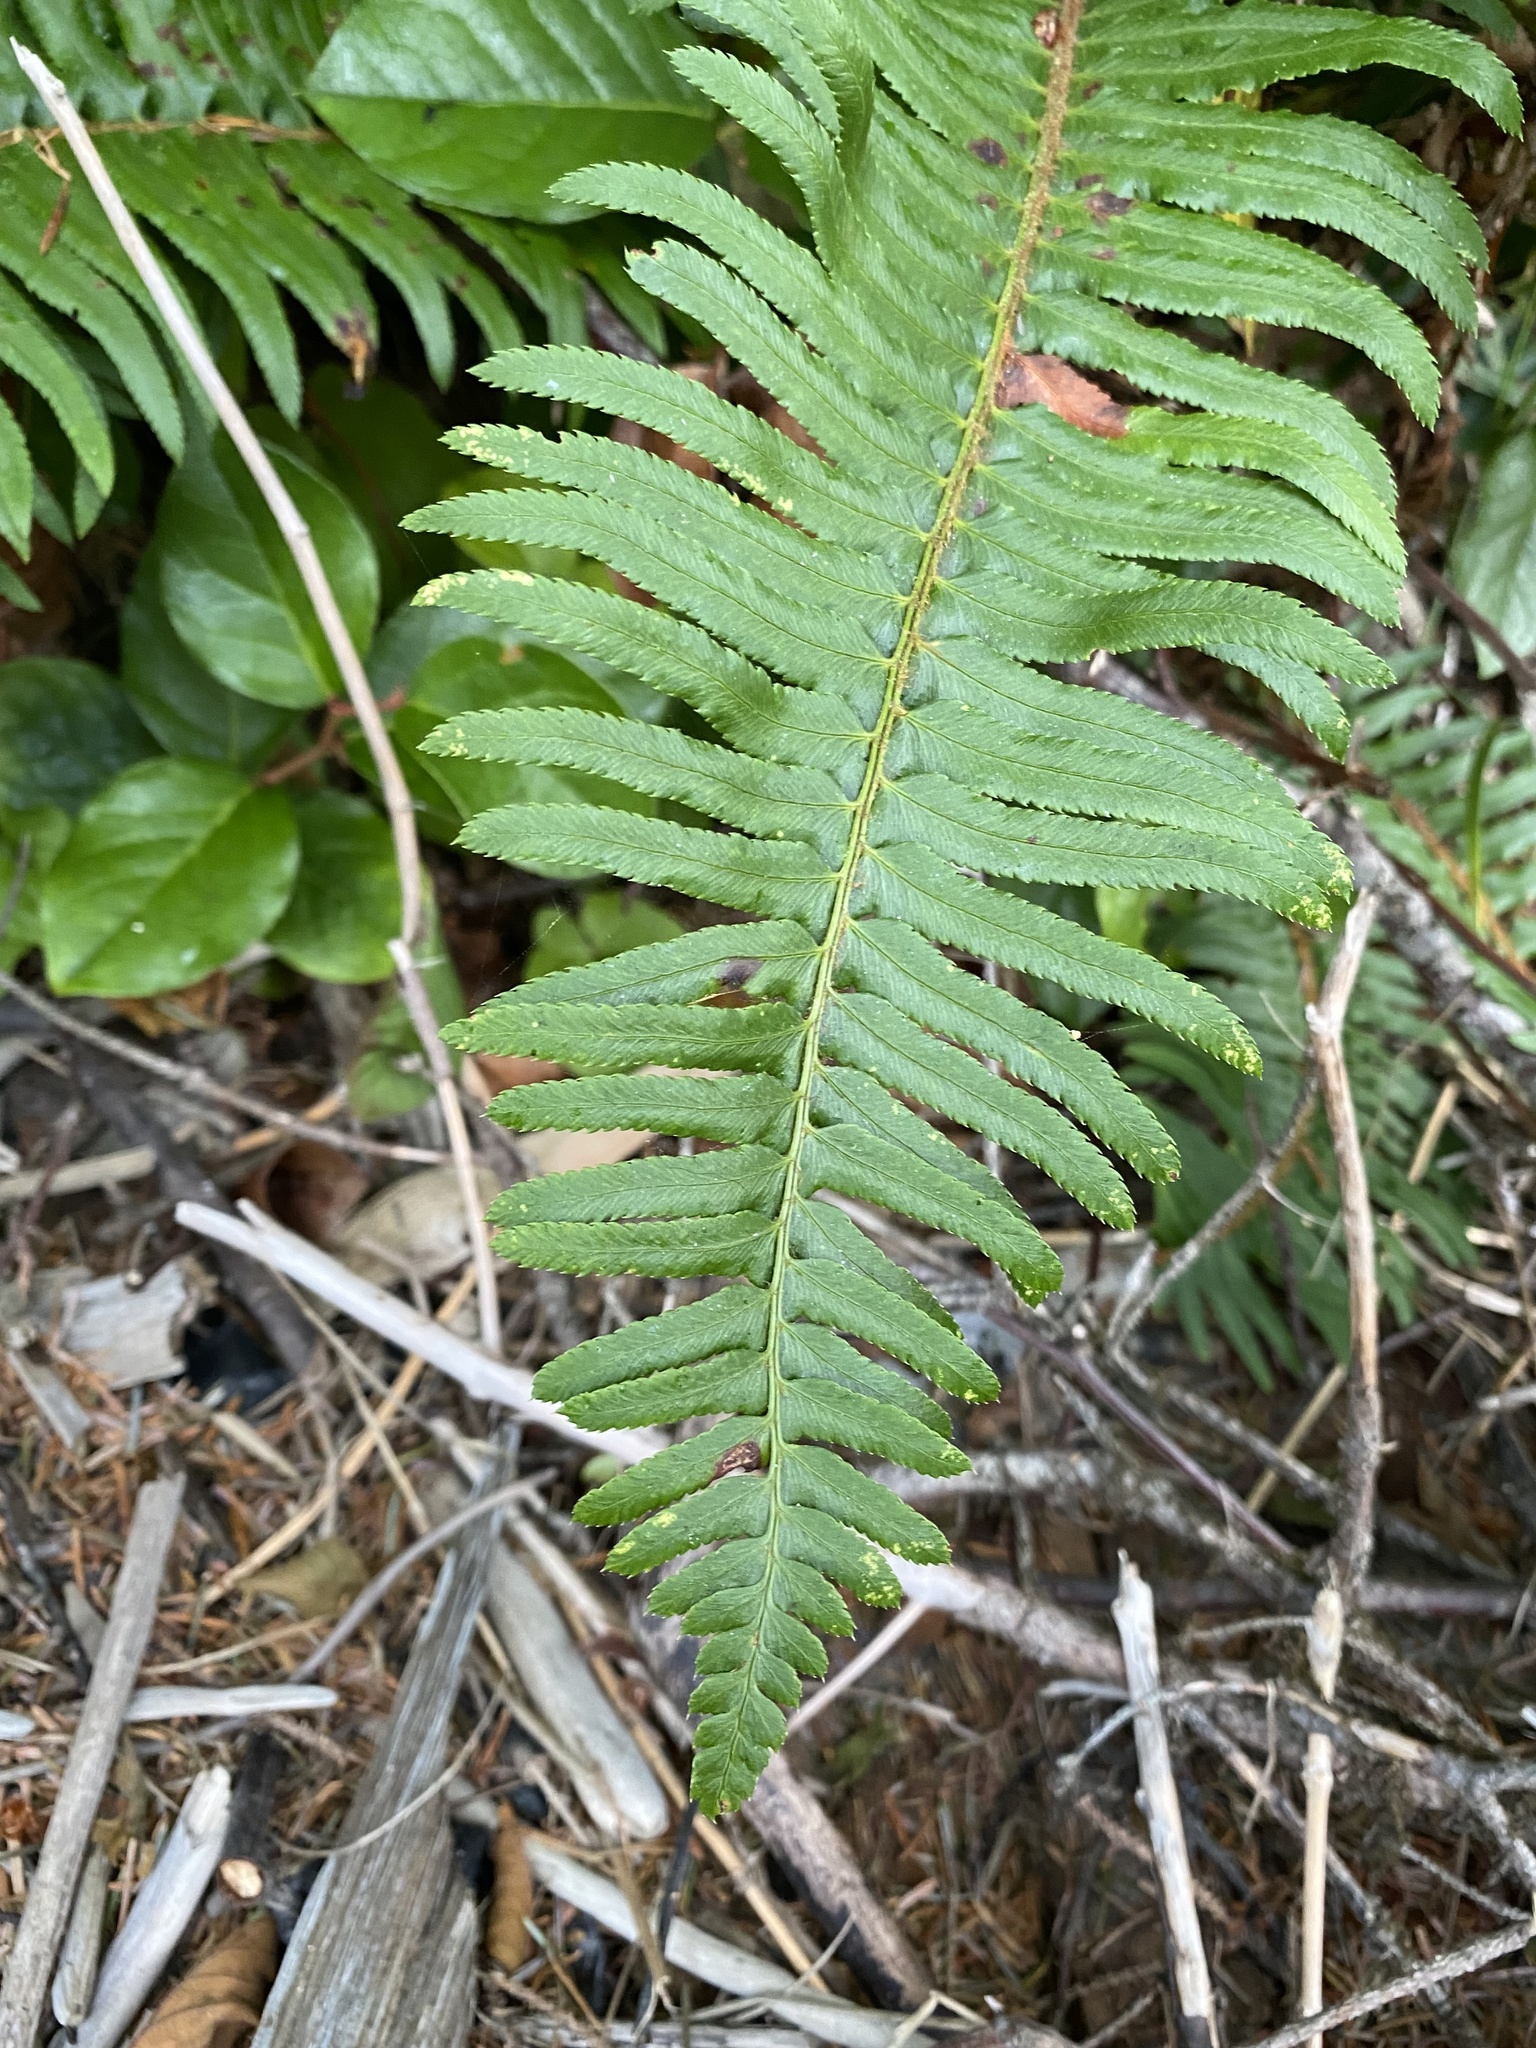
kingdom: Plantae
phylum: Tracheophyta
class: Polypodiopsida
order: Polypodiales
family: Dryopteridaceae
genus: Polystichum
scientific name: Polystichum munitum
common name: Western sword-fern
